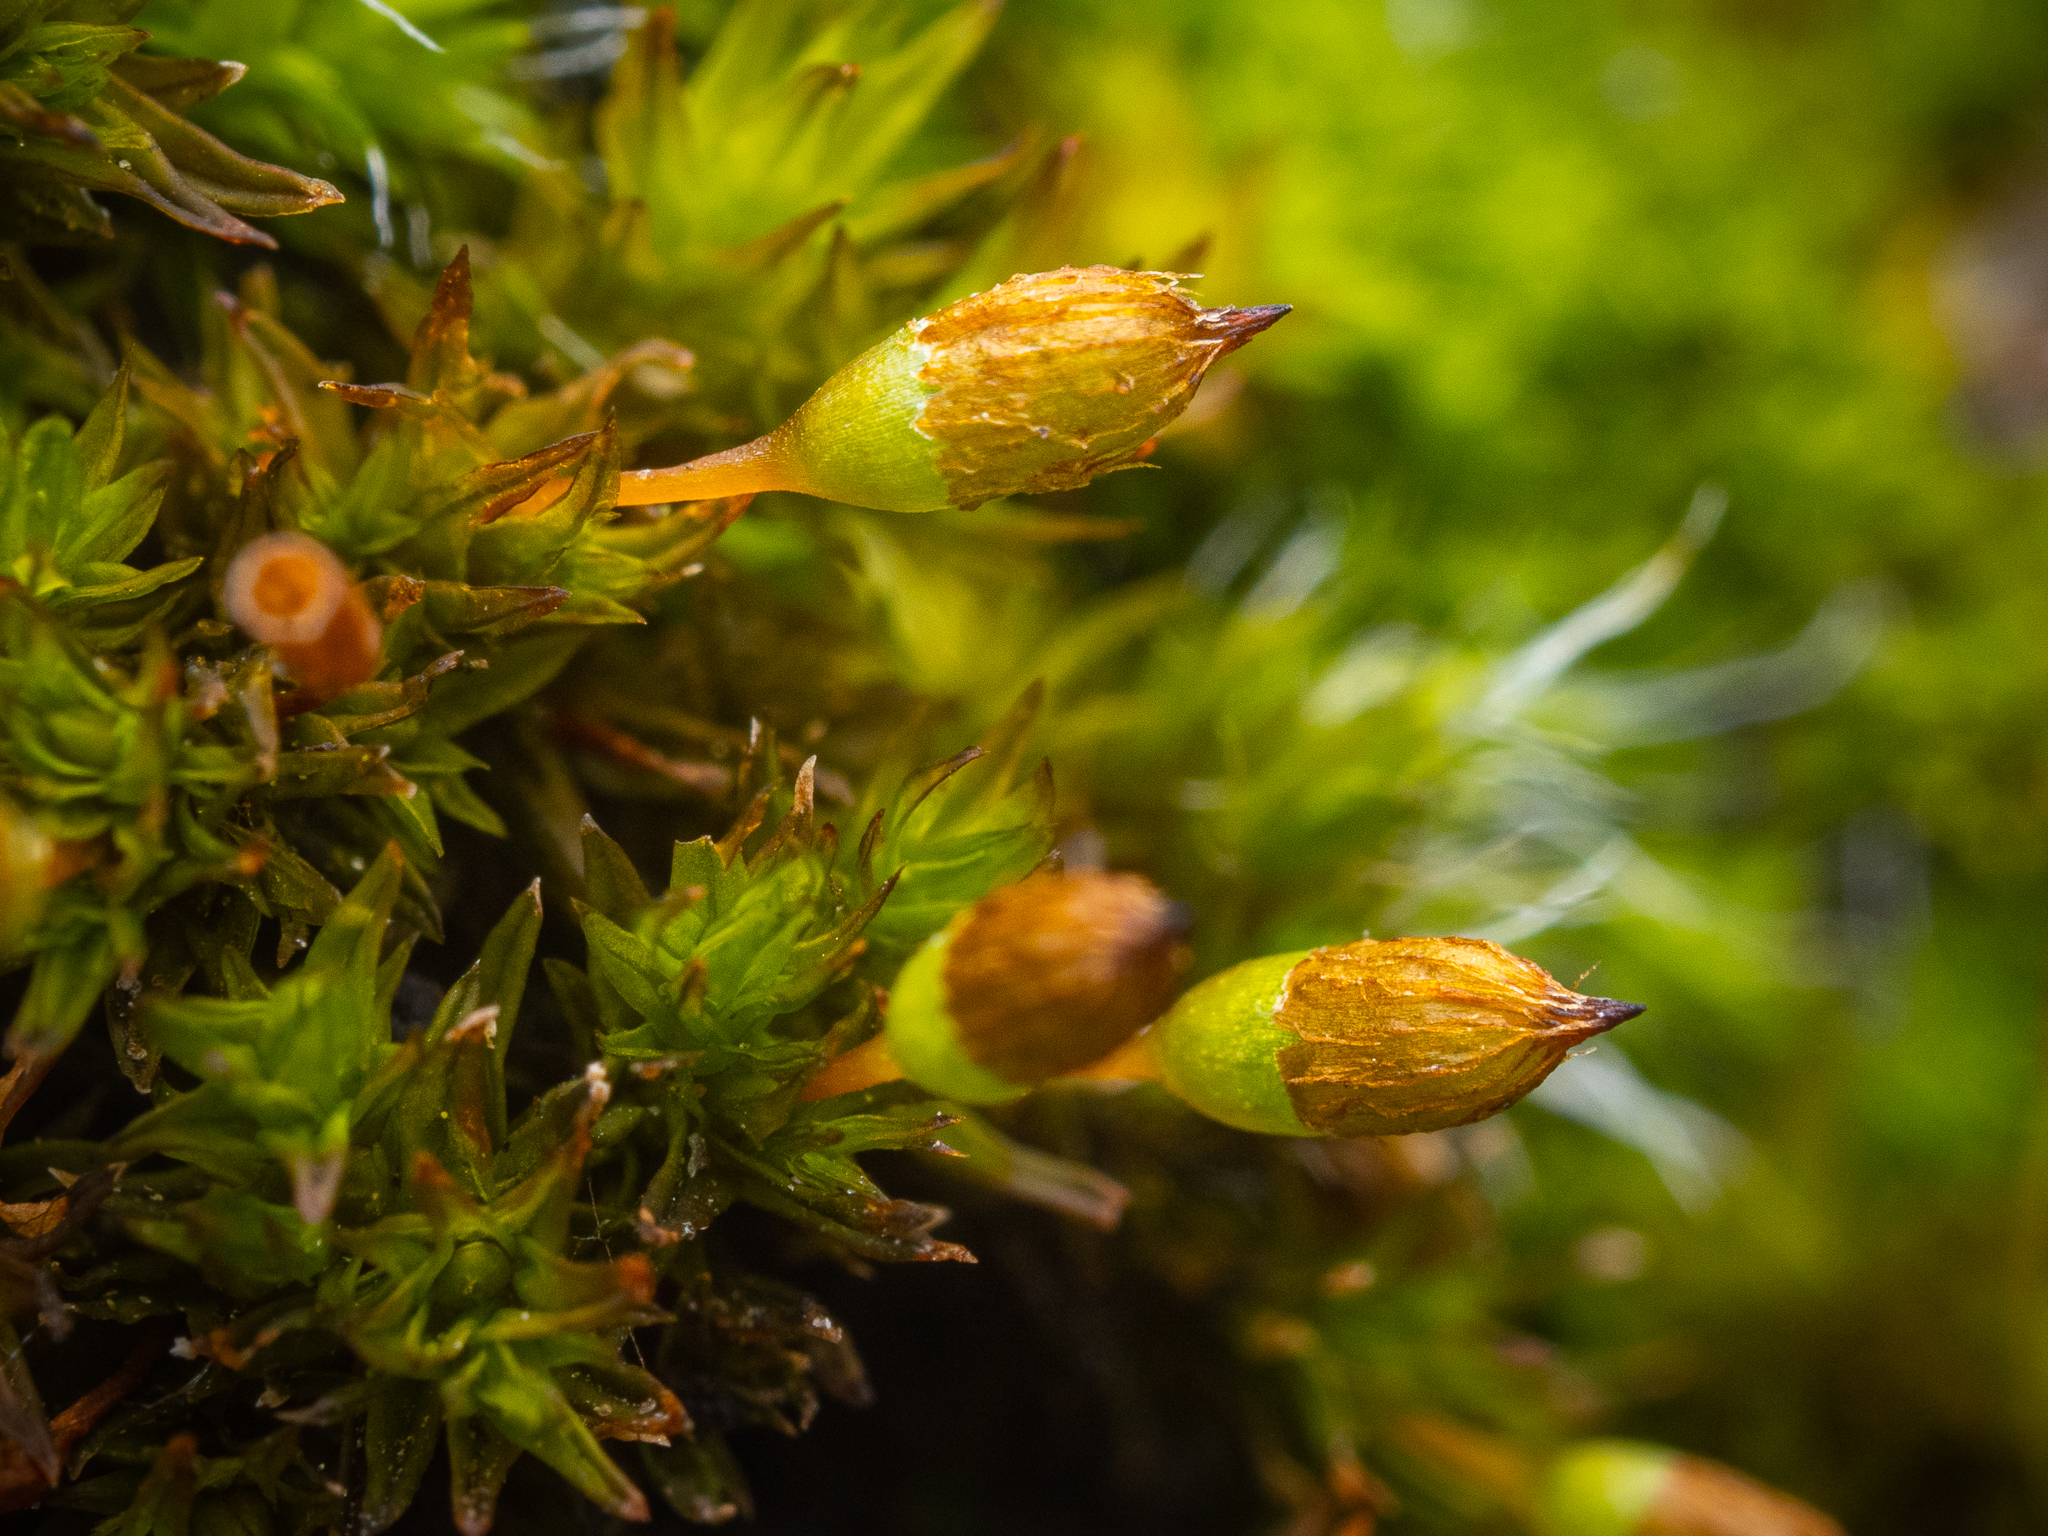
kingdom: Plantae
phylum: Bryophyta
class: Bryopsida
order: Orthotrichales
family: Orthotrichaceae
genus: Orthotrichum
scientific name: Orthotrichum anomalum
